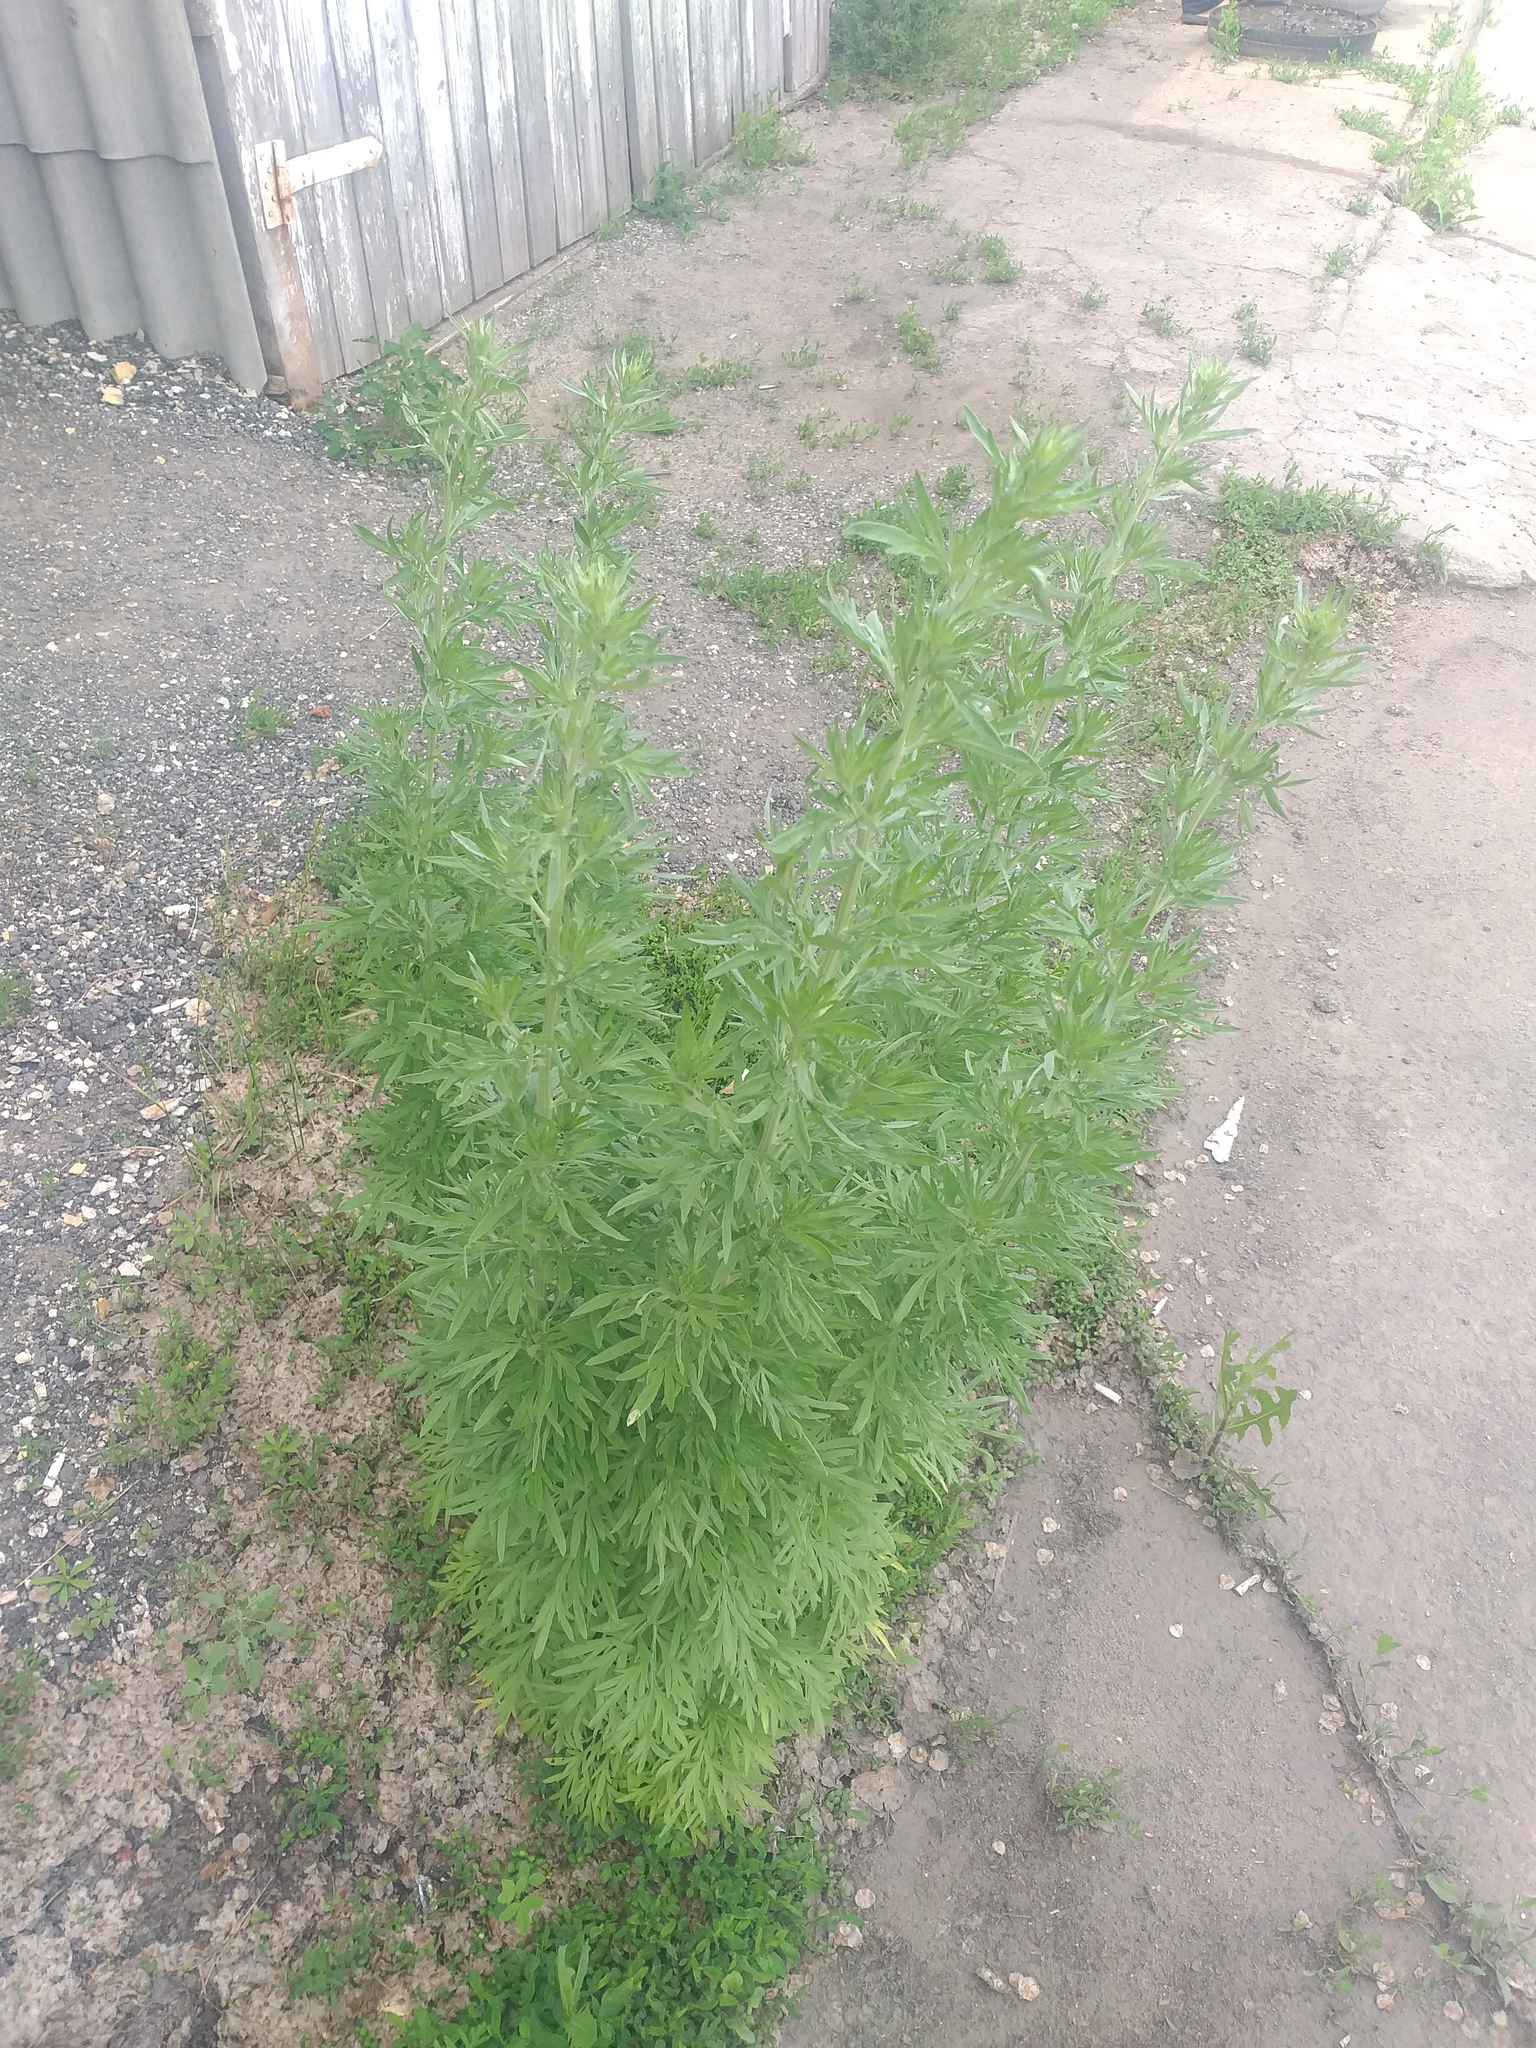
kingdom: Plantae
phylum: Tracheophyta
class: Magnoliopsida
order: Asterales
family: Asteraceae
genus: Artemisia
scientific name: Artemisia absinthium
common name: Wormwood
